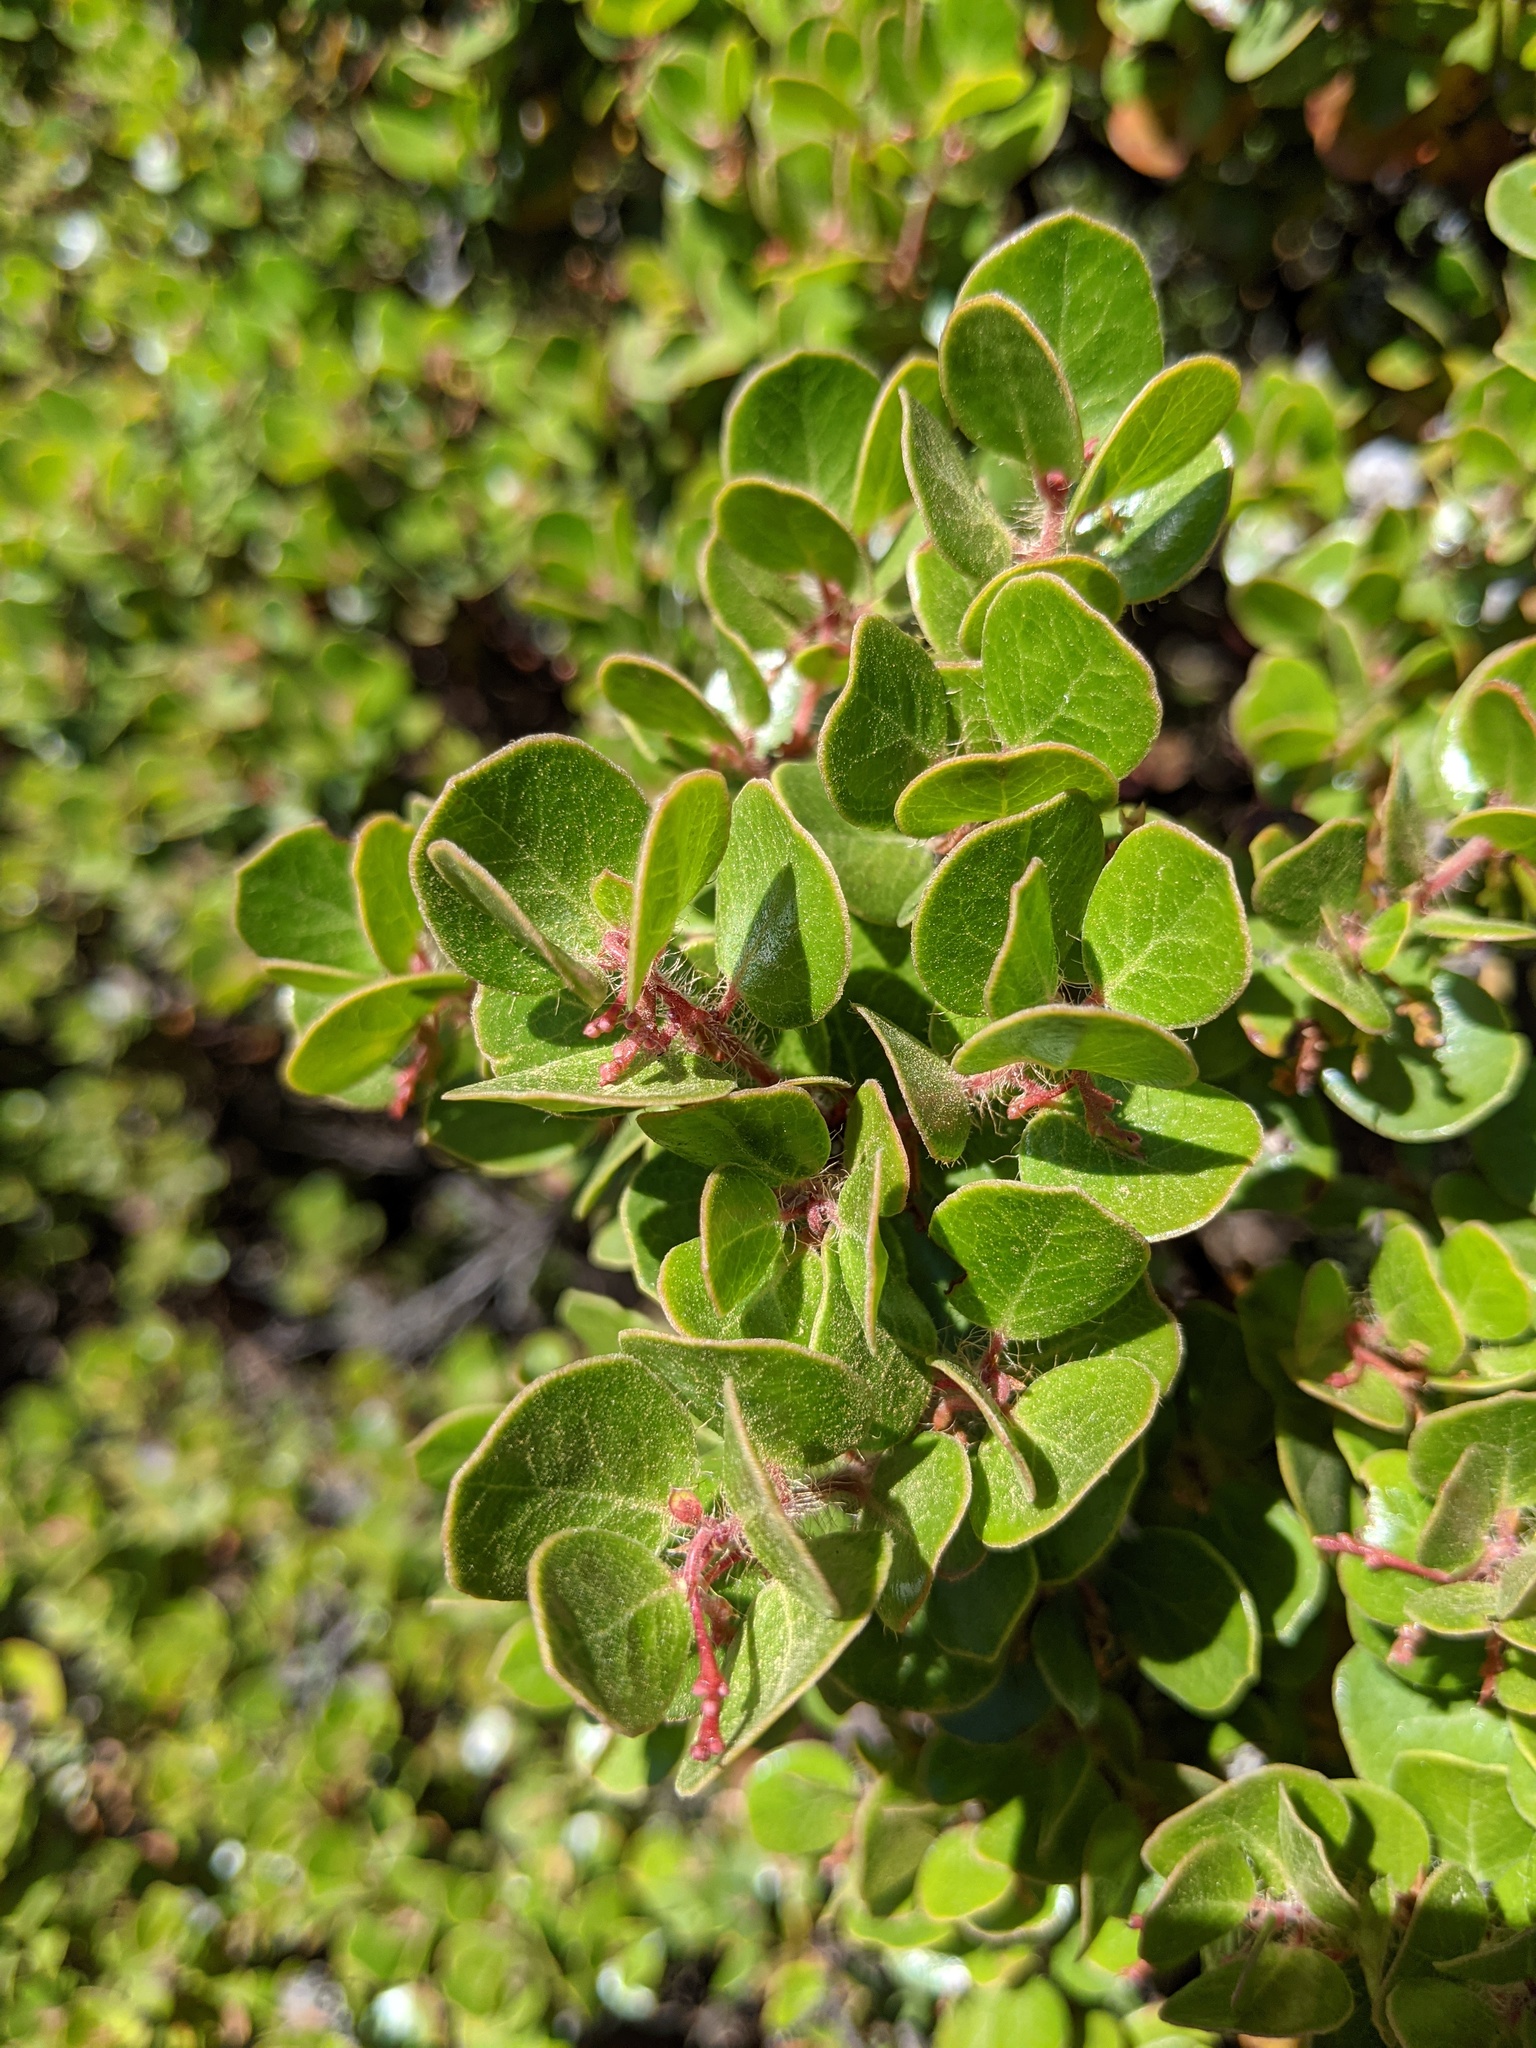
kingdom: Plantae
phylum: Tracheophyta
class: Magnoliopsida
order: Ericales
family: Ericaceae
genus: Arctostaphylos
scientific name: Arctostaphylos nummularia
